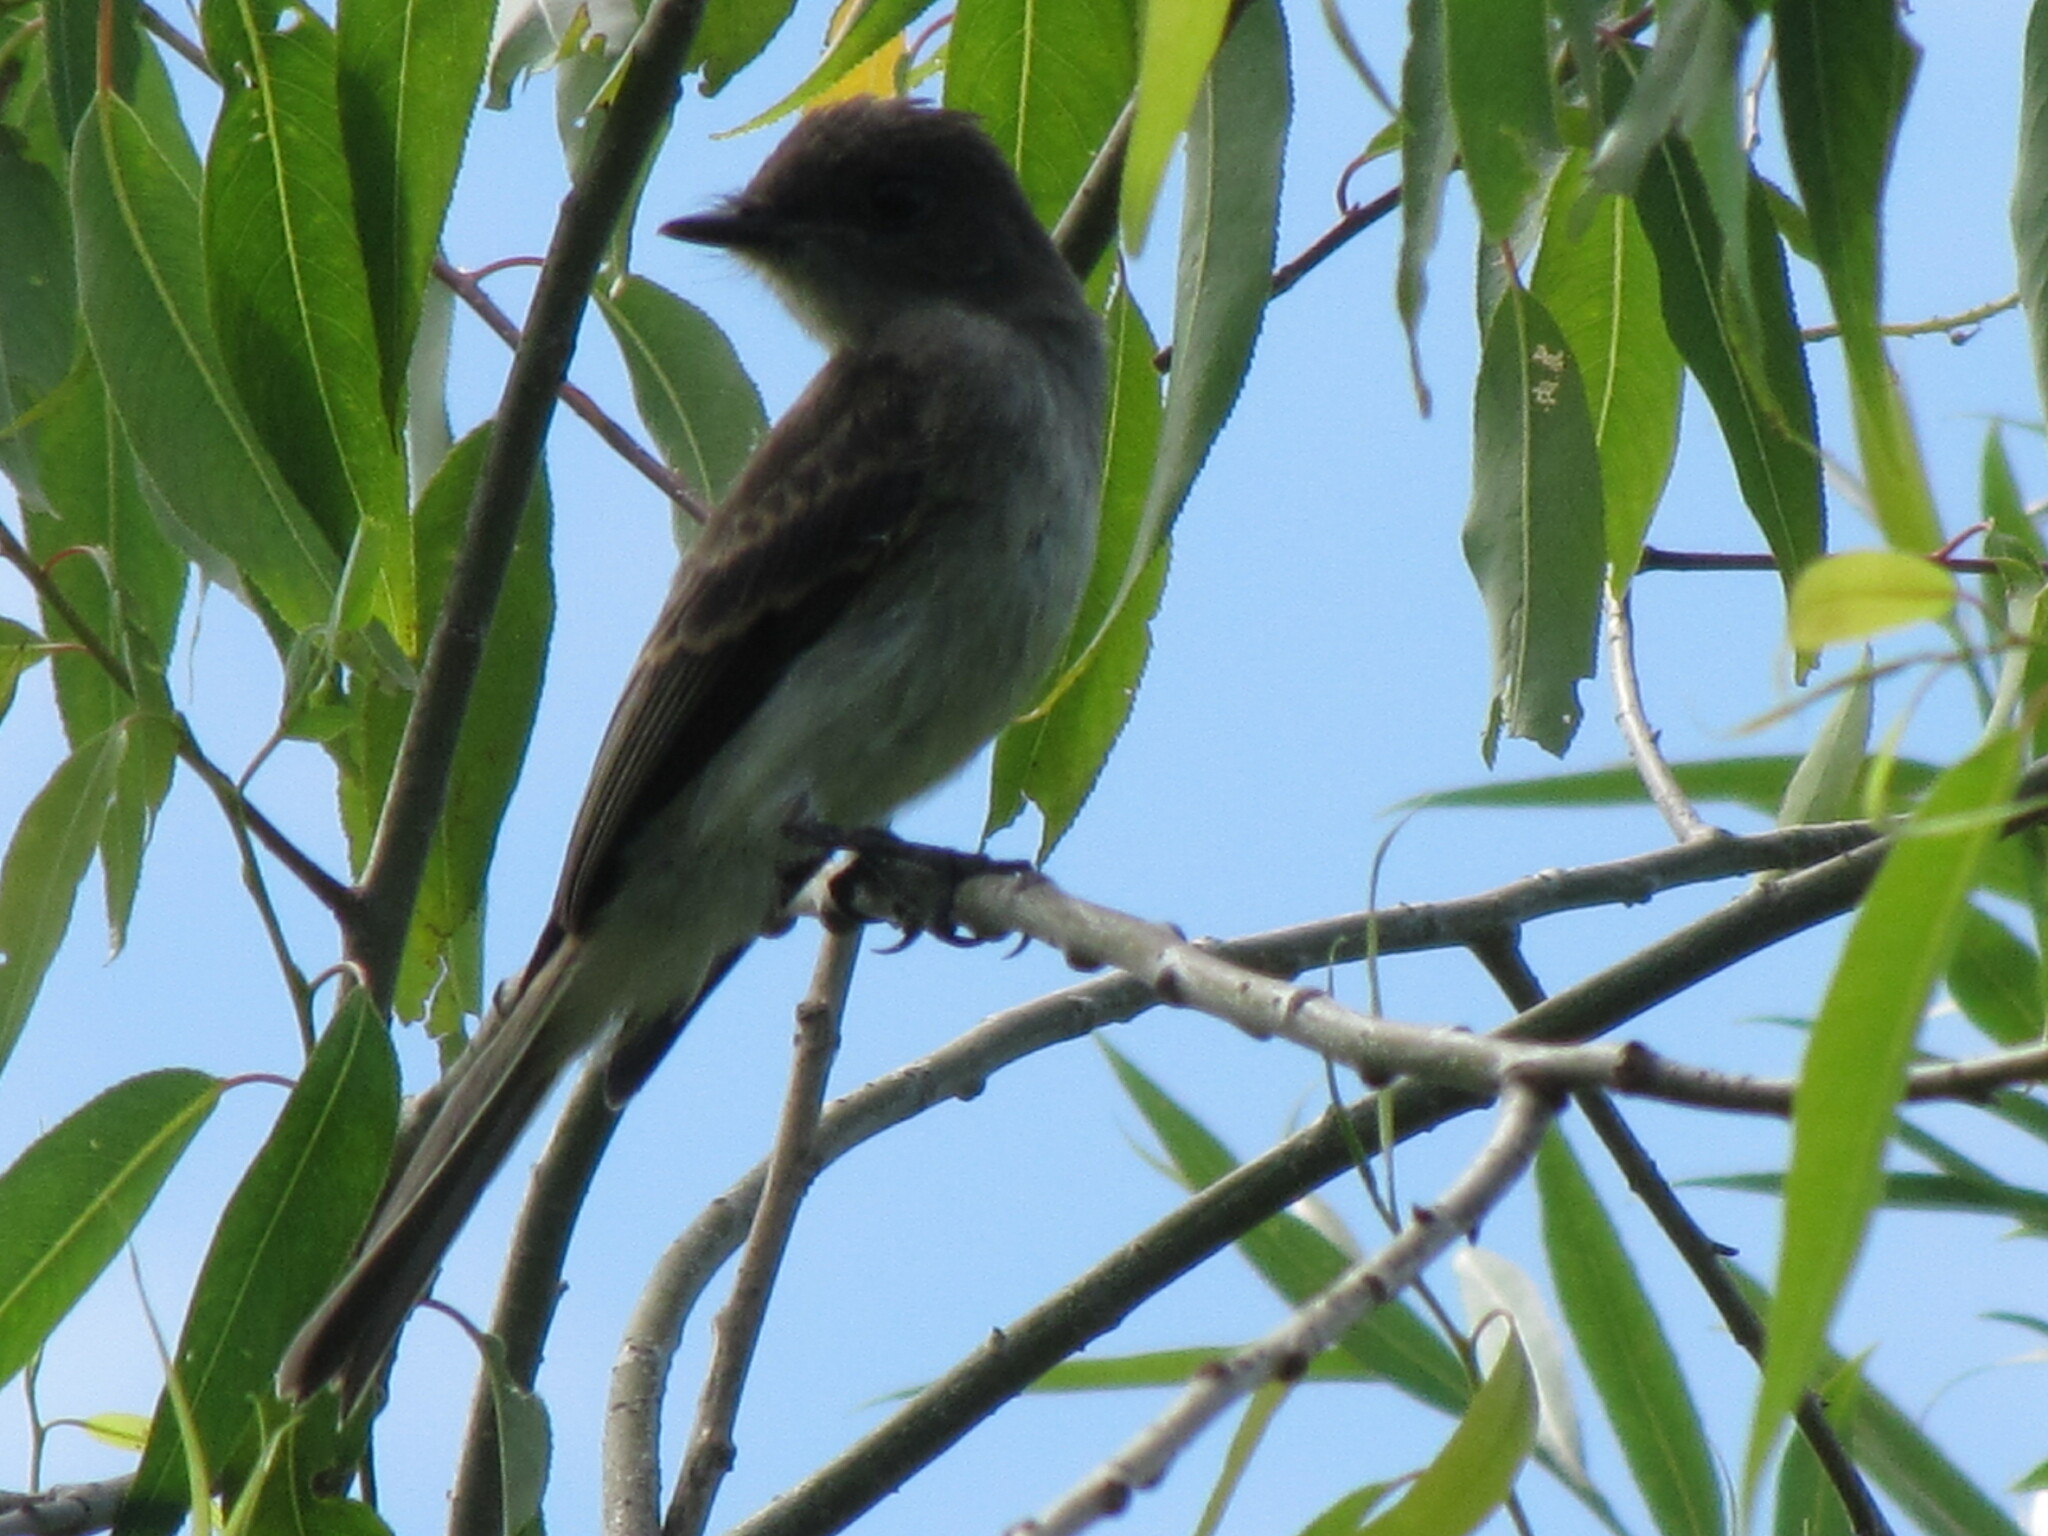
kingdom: Animalia
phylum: Chordata
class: Aves
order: Passeriformes
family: Tyrannidae
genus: Sayornis
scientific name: Sayornis phoebe
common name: Eastern phoebe
